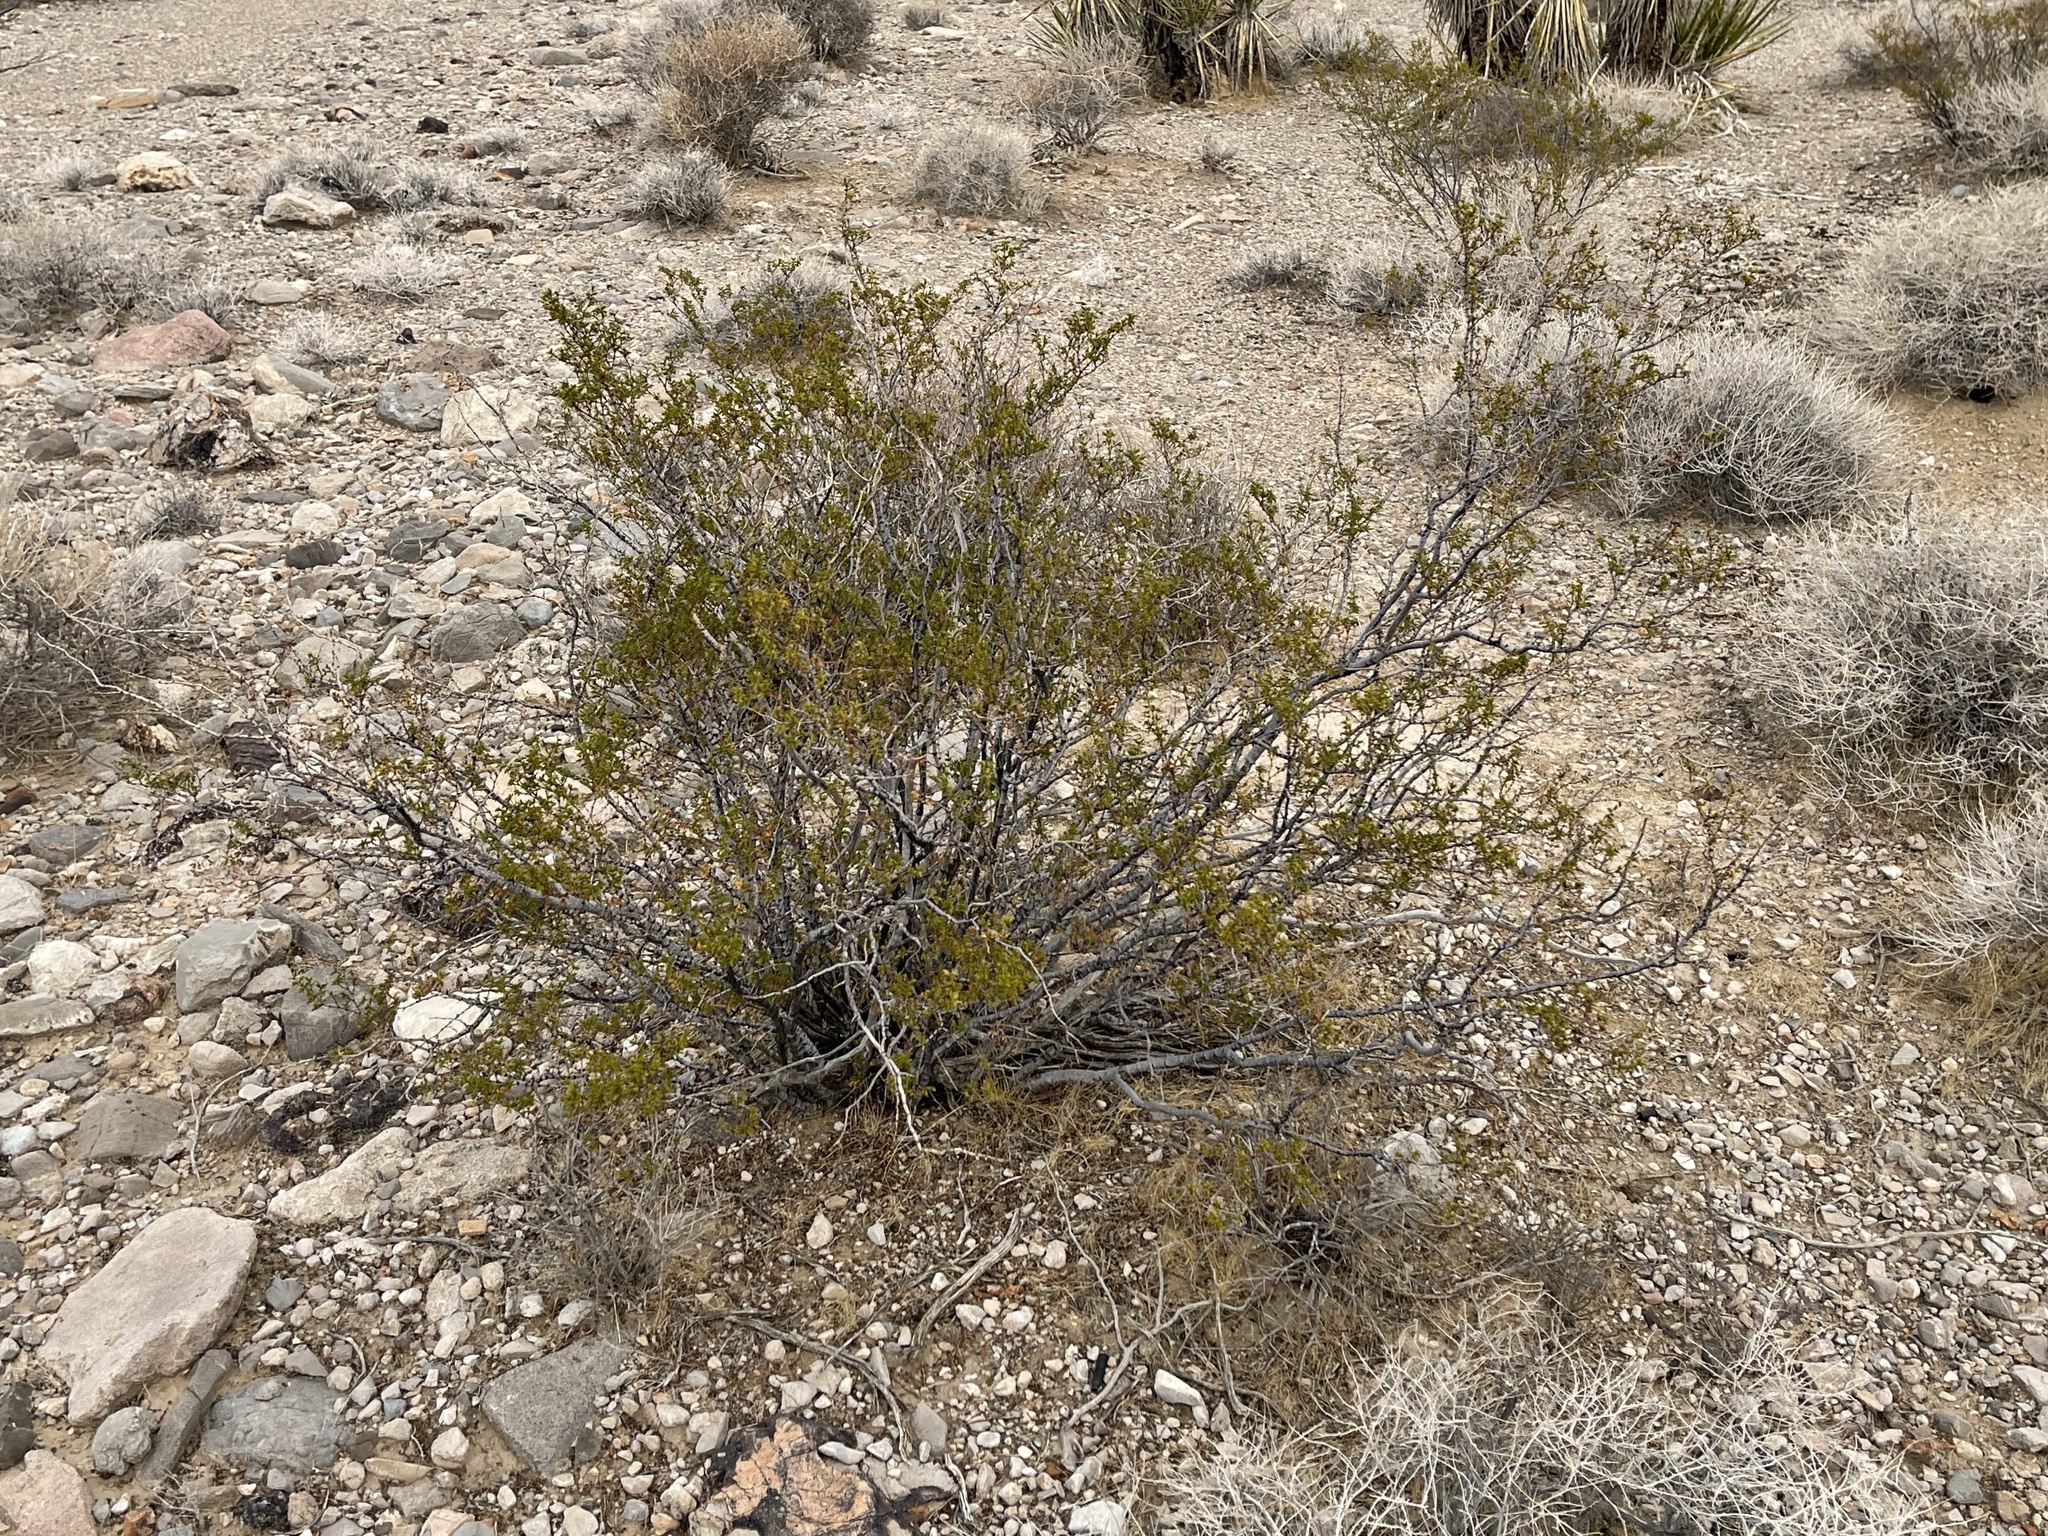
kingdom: Plantae
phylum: Tracheophyta
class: Magnoliopsida
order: Zygophyllales
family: Zygophyllaceae
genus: Larrea
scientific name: Larrea tridentata
